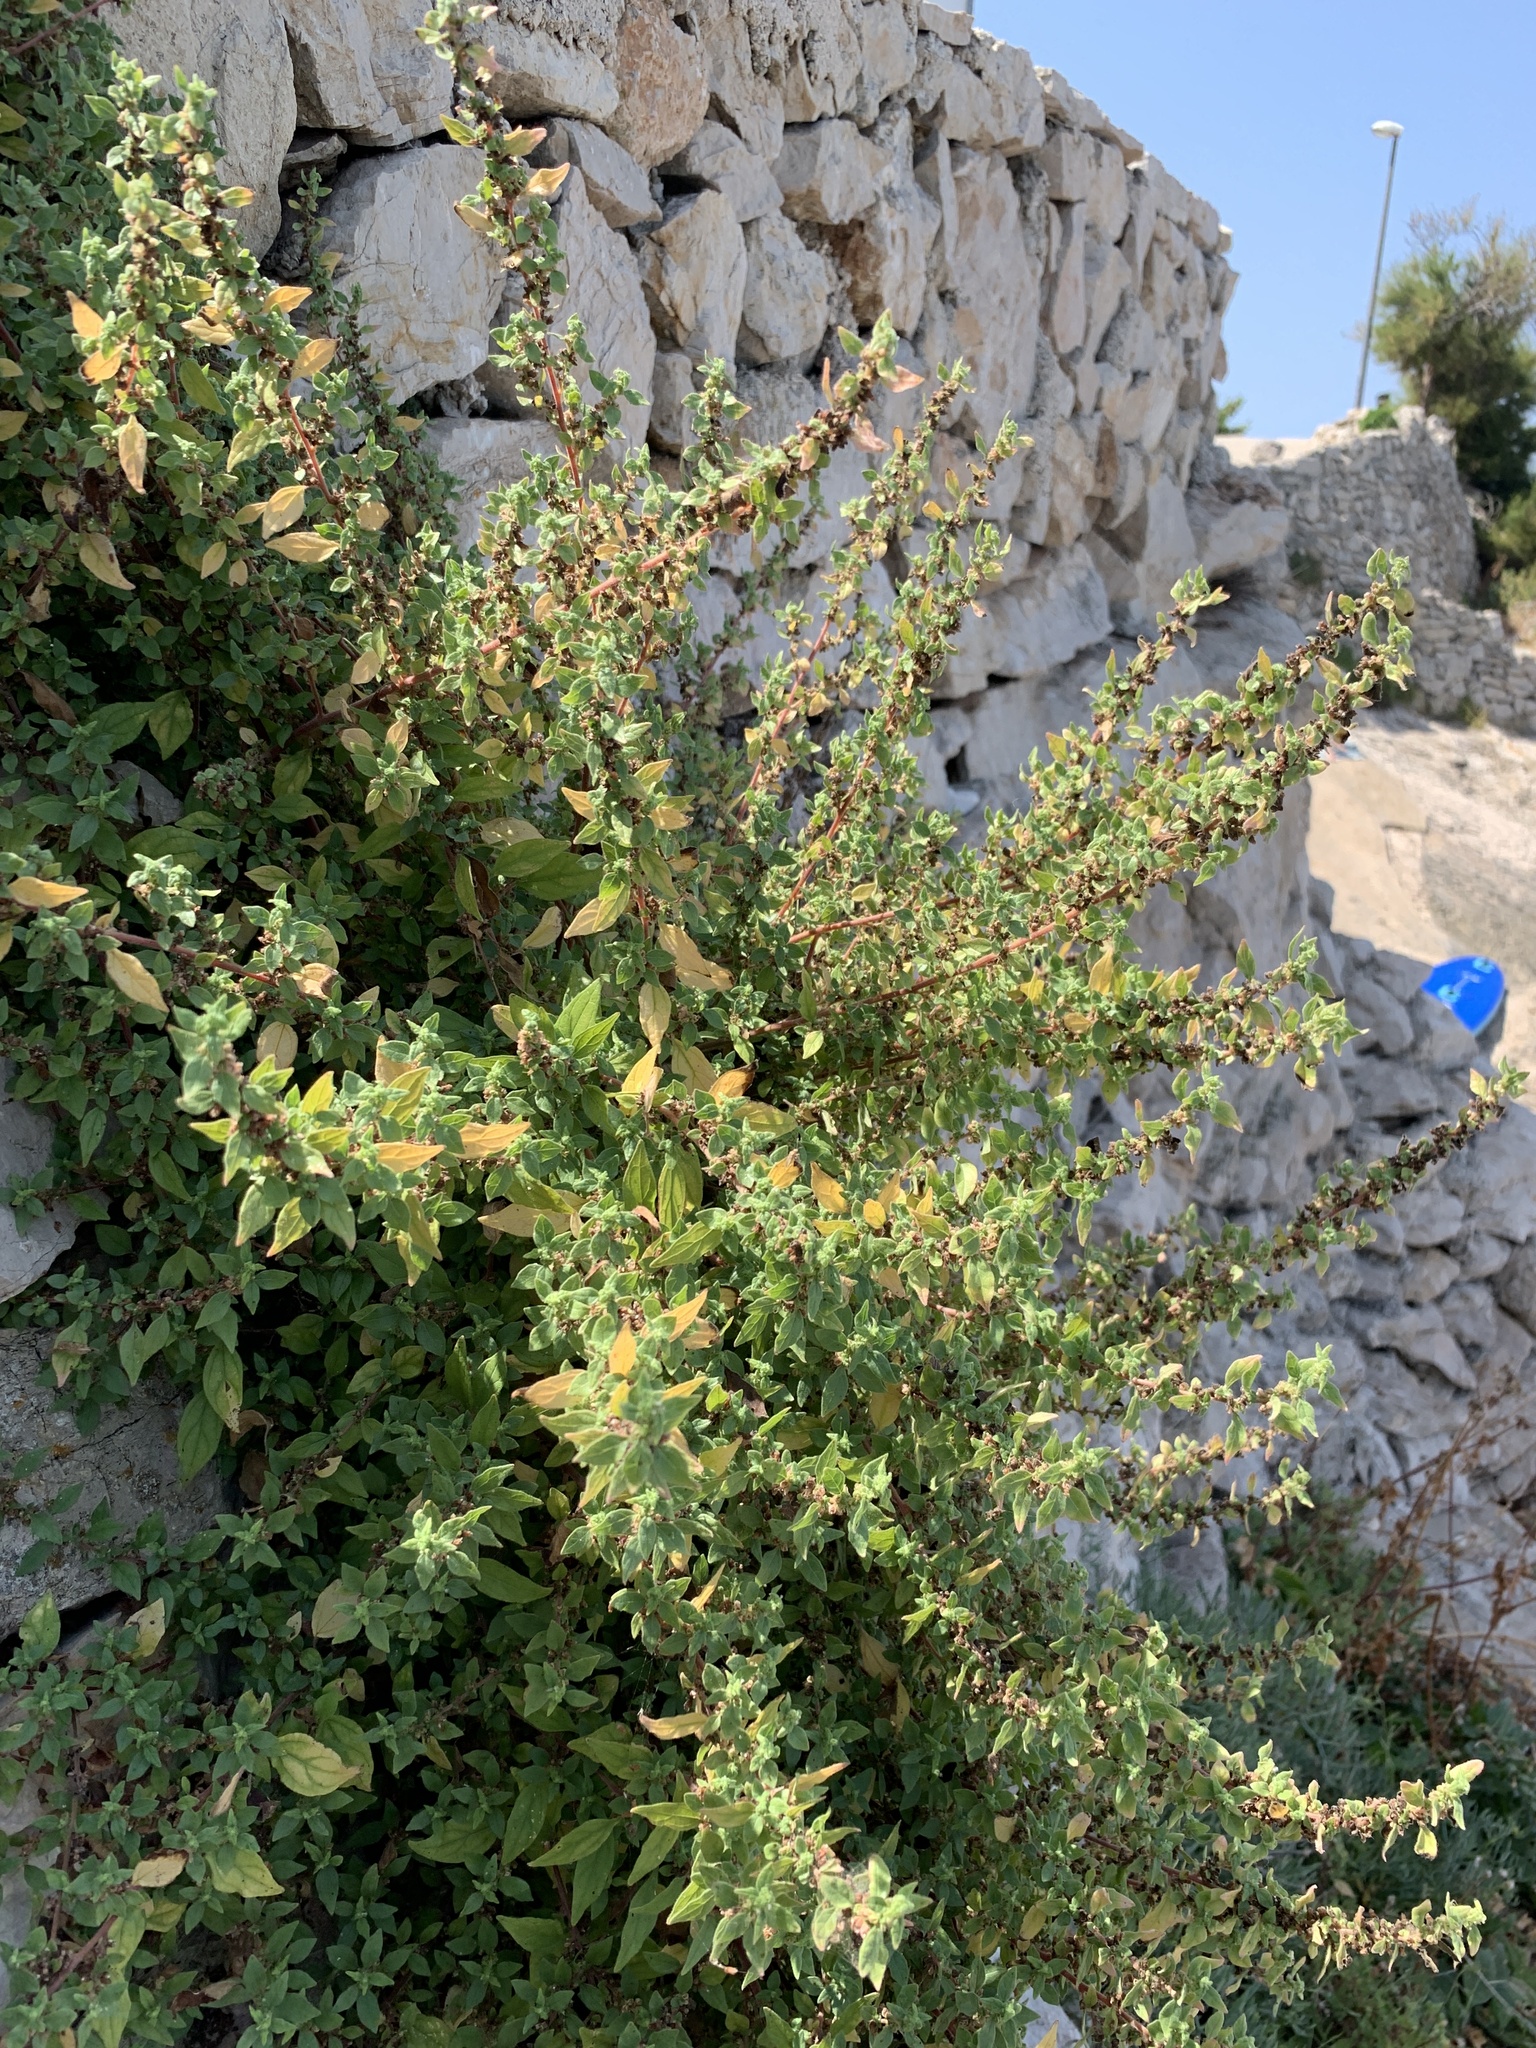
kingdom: Plantae
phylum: Tracheophyta
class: Magnoliopsida
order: Rosales
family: Urticaceae
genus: Parietaria
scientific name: Parietaria judaica
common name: Pellitory-of-the-wall
